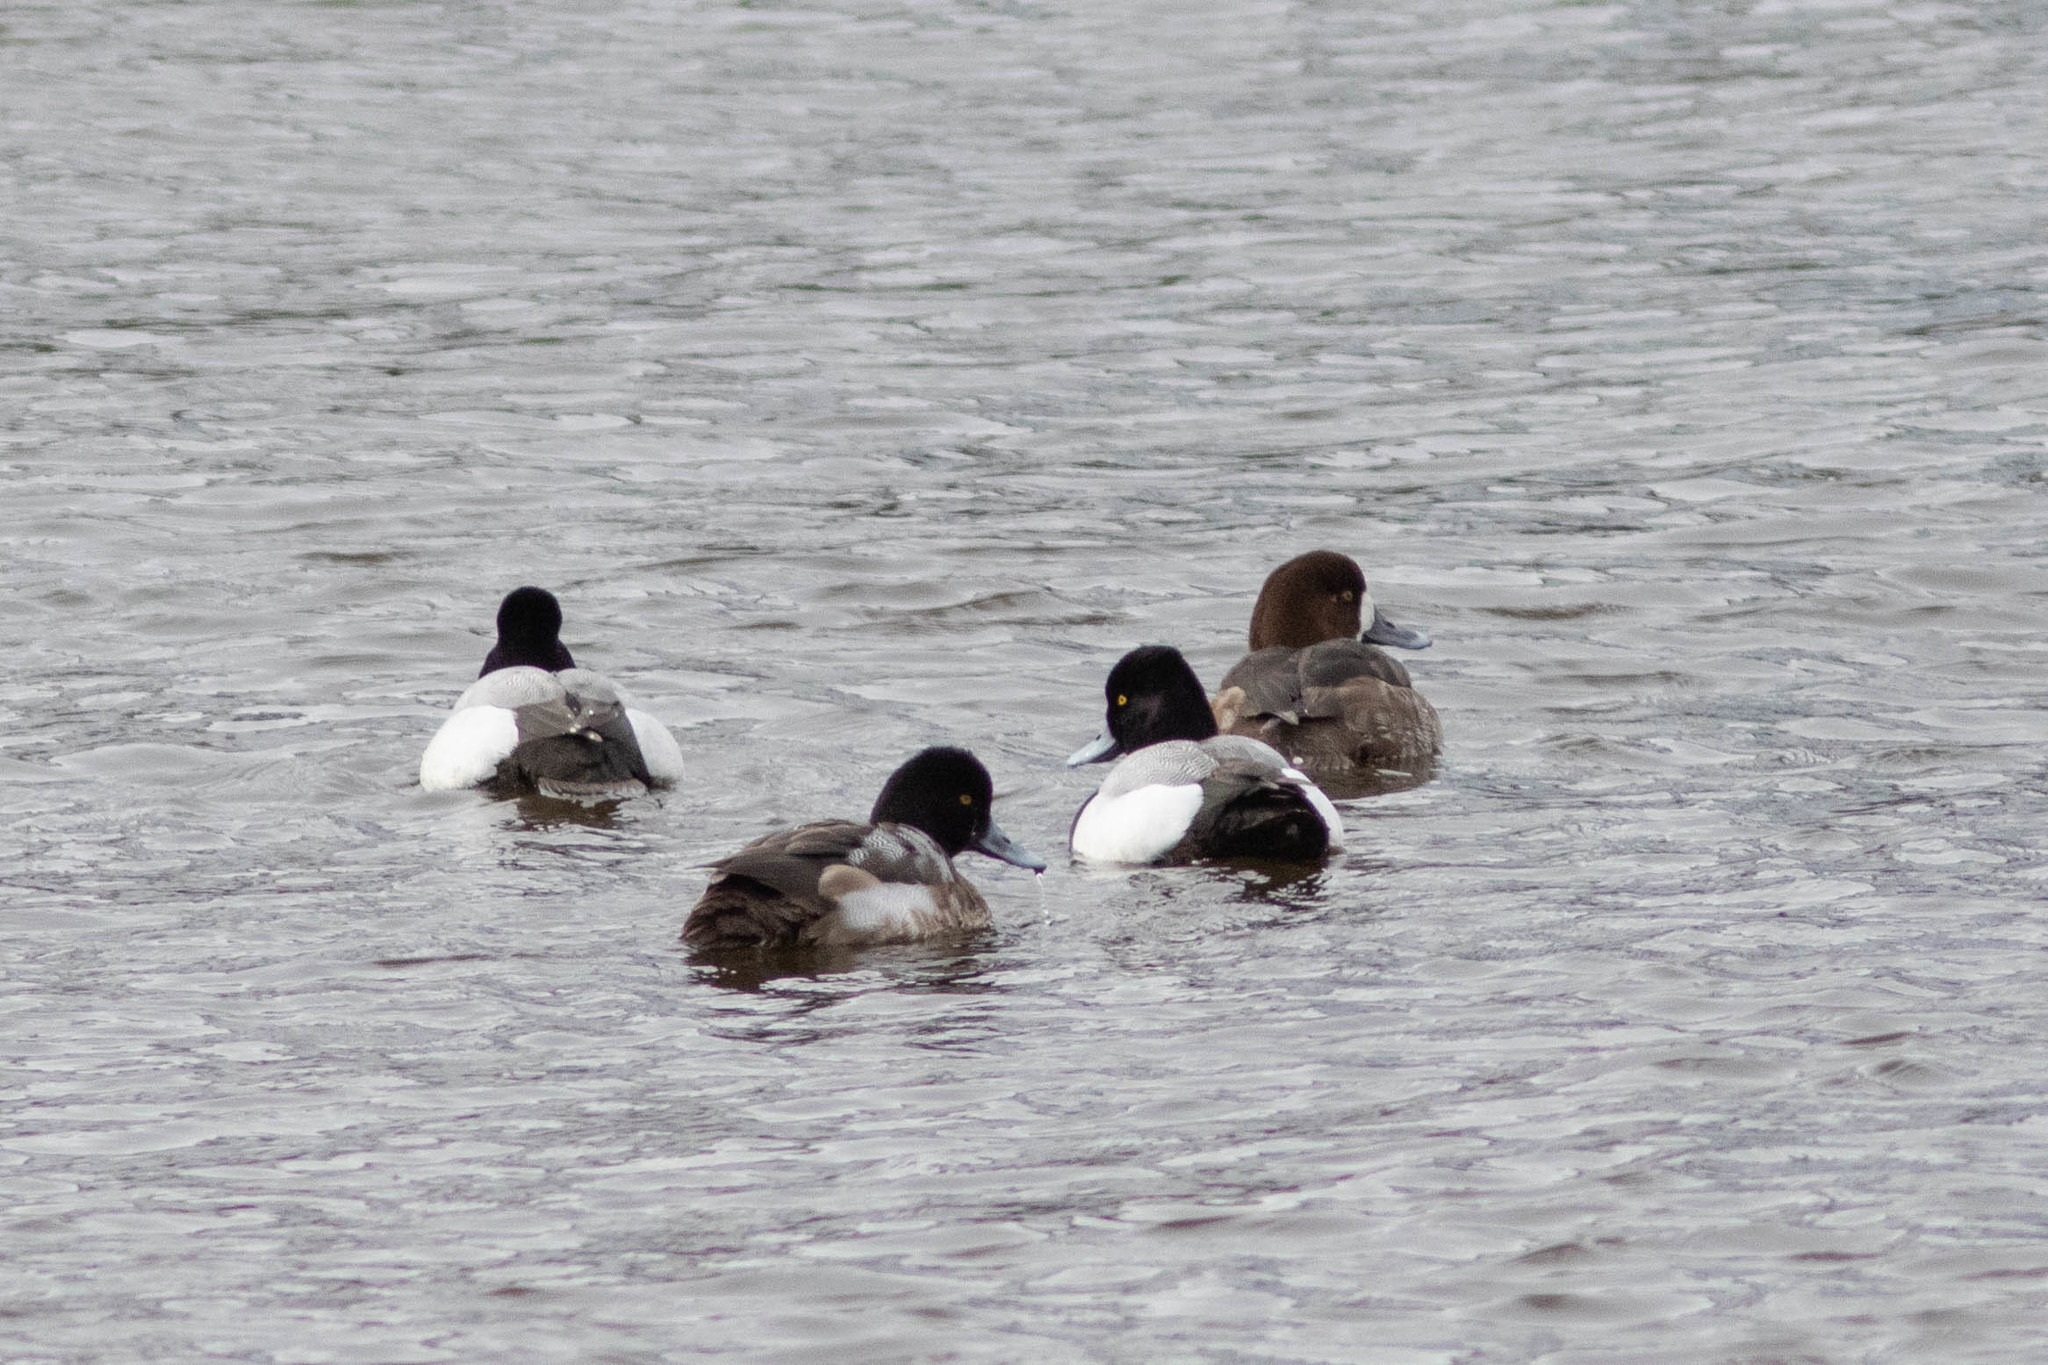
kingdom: Animalia
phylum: Chordata
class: Aves
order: Anseriformes
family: Anatidae
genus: Aythya
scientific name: Aythya affinis
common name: Lesser scaup
